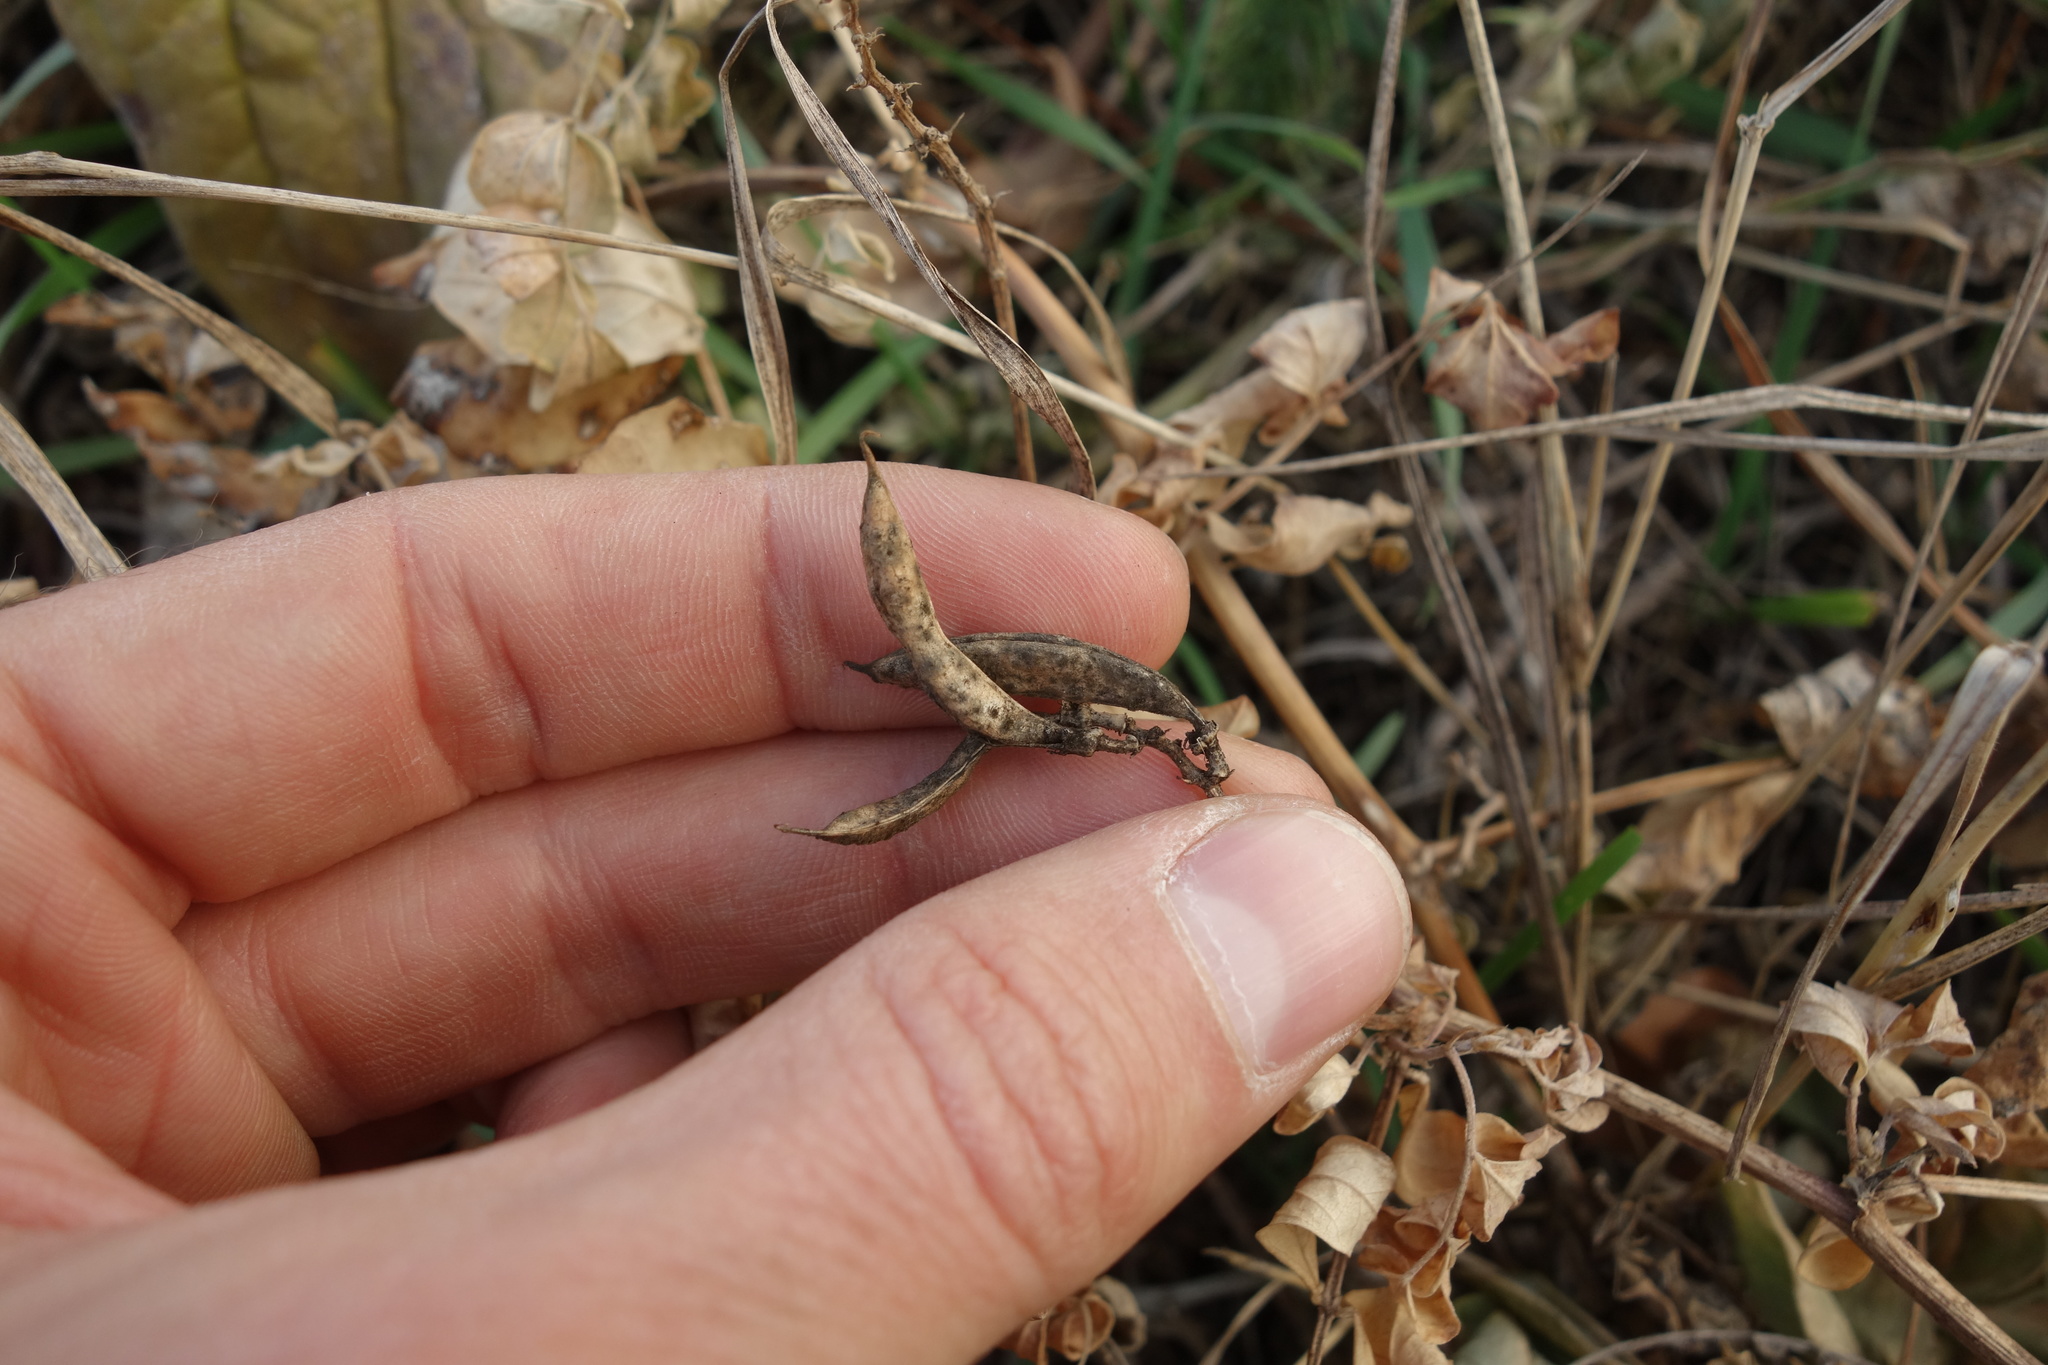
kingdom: Plantae
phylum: Tracheophyta
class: Magnoliopsida
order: Fabales
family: Fabaceae
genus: Astragalus
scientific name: Astragalus glycyphyllos
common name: Wild liquorice
